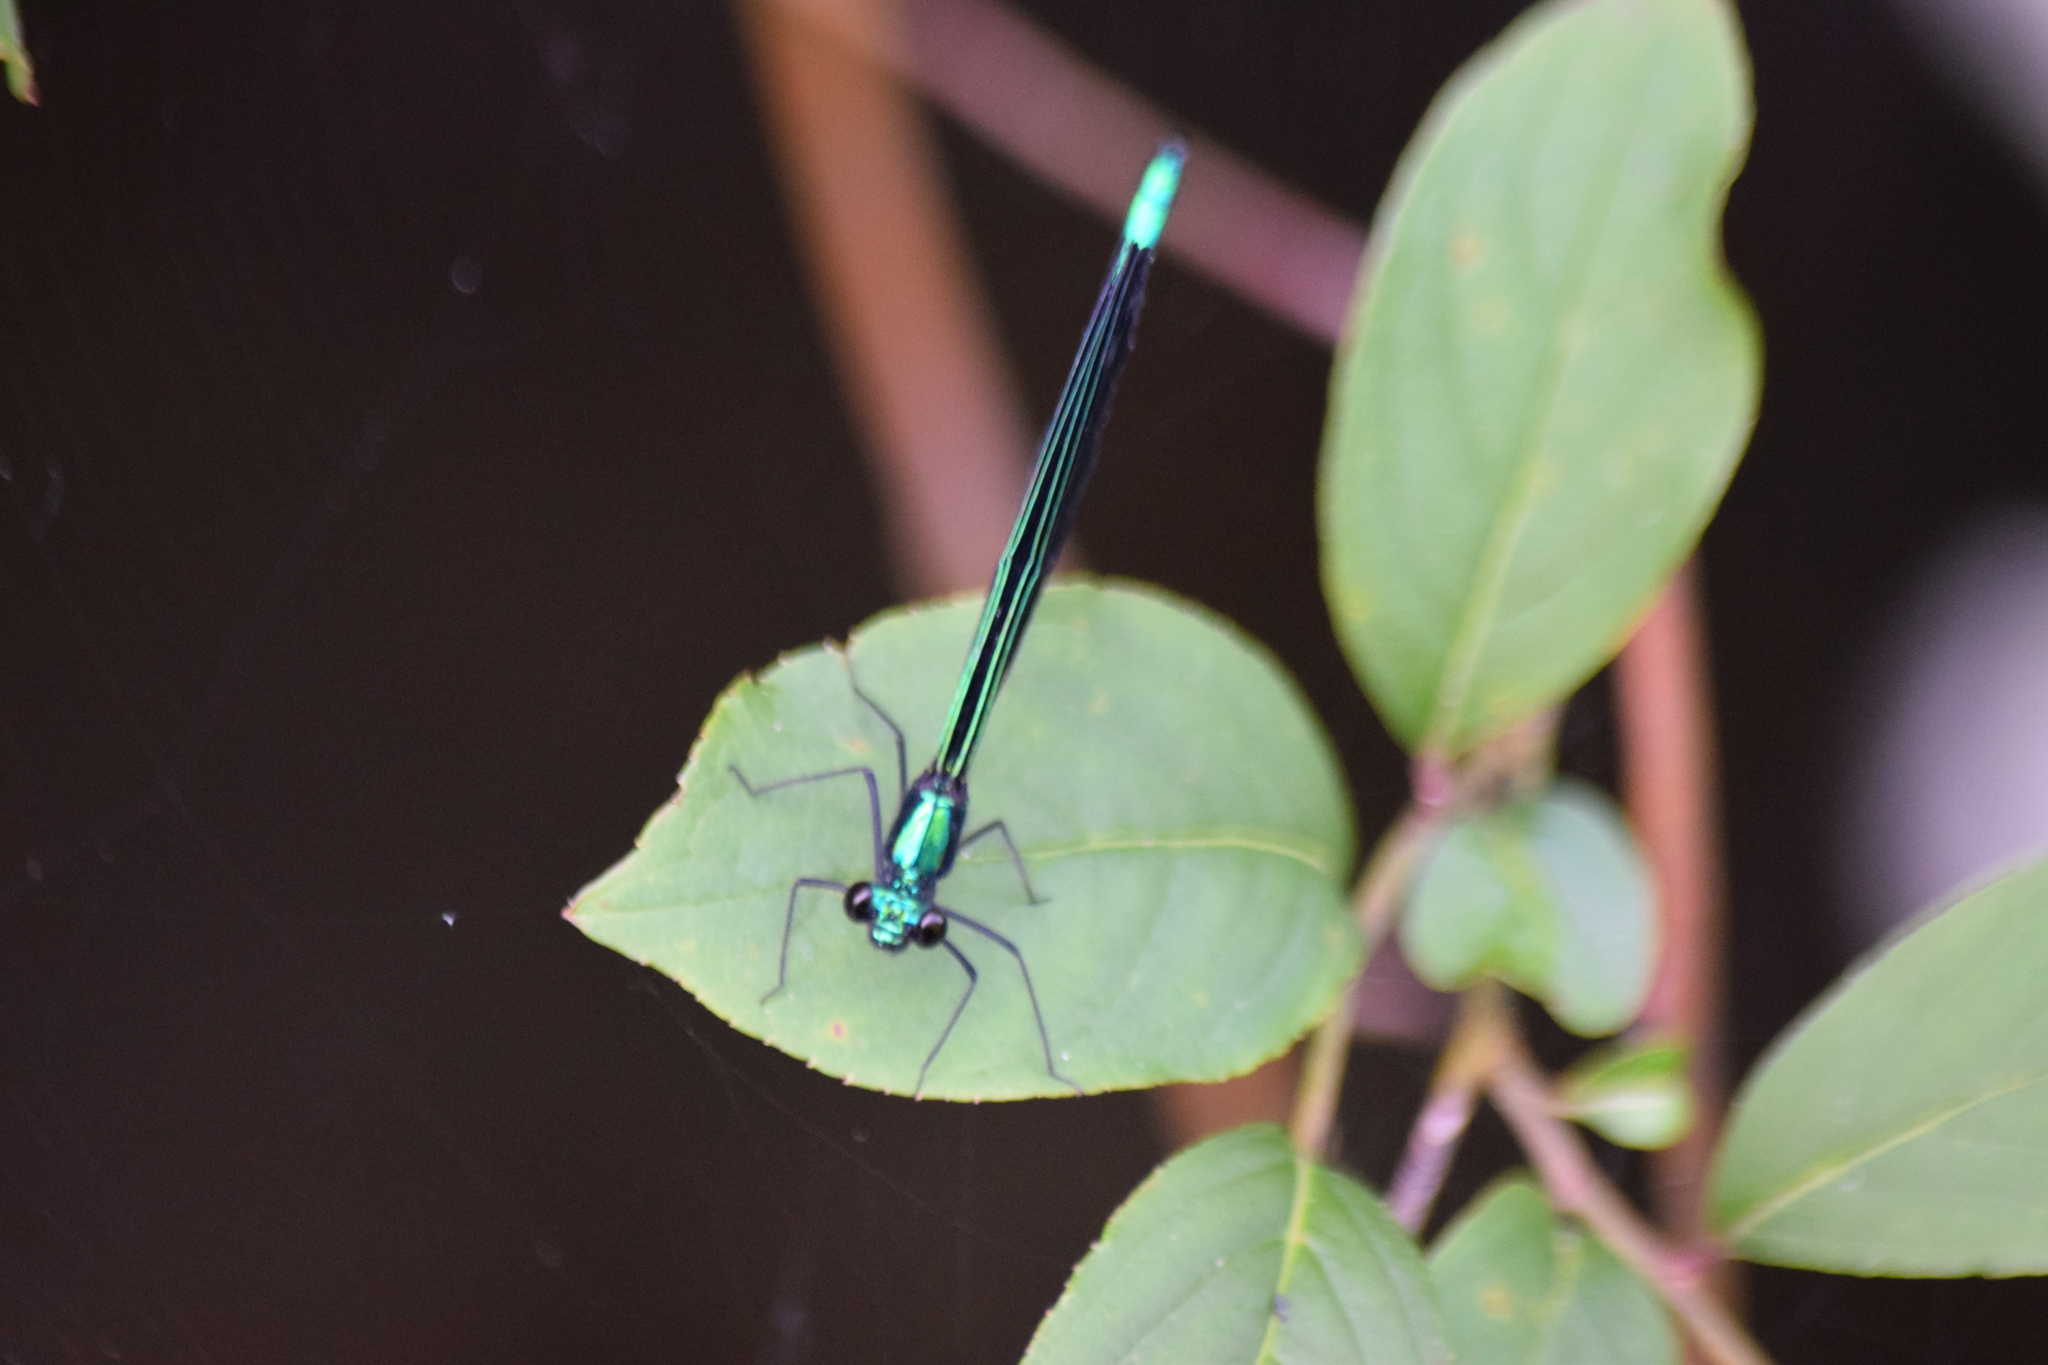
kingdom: Animalia
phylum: Arthropoda
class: Insecta
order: Odonata
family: Calopterygidae
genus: Calopteryx
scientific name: Calopteryx maculata
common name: Ebony jewelwing
